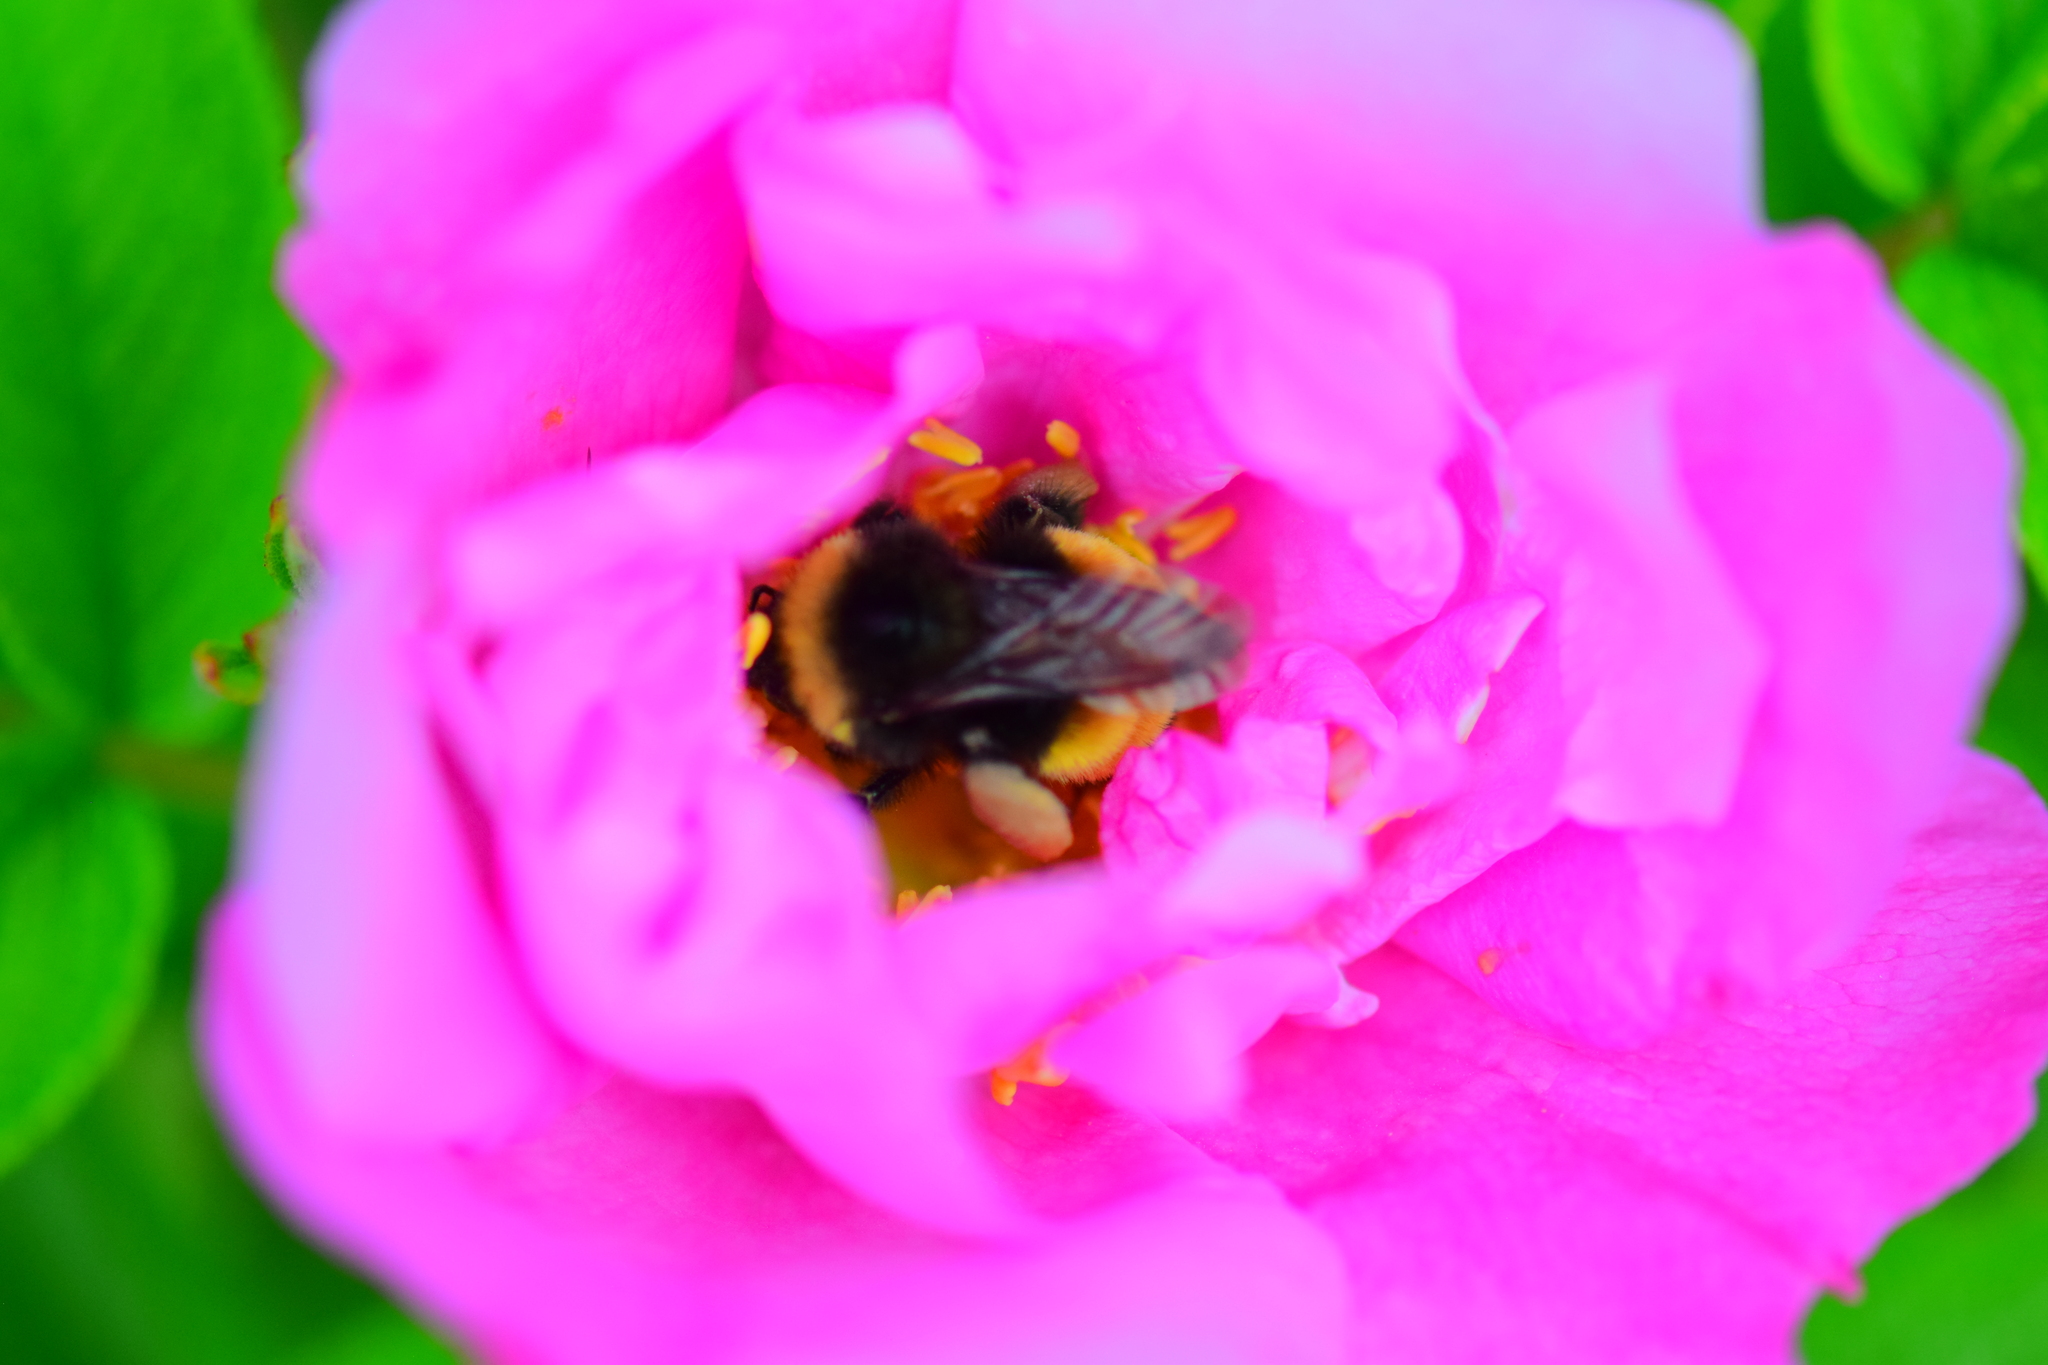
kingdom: Animalia
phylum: Arthropoda
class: Insecta
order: Hymenoptera
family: Apidae
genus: Bombus
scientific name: Bombus terricola
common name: Yellow-banded bumble bee
